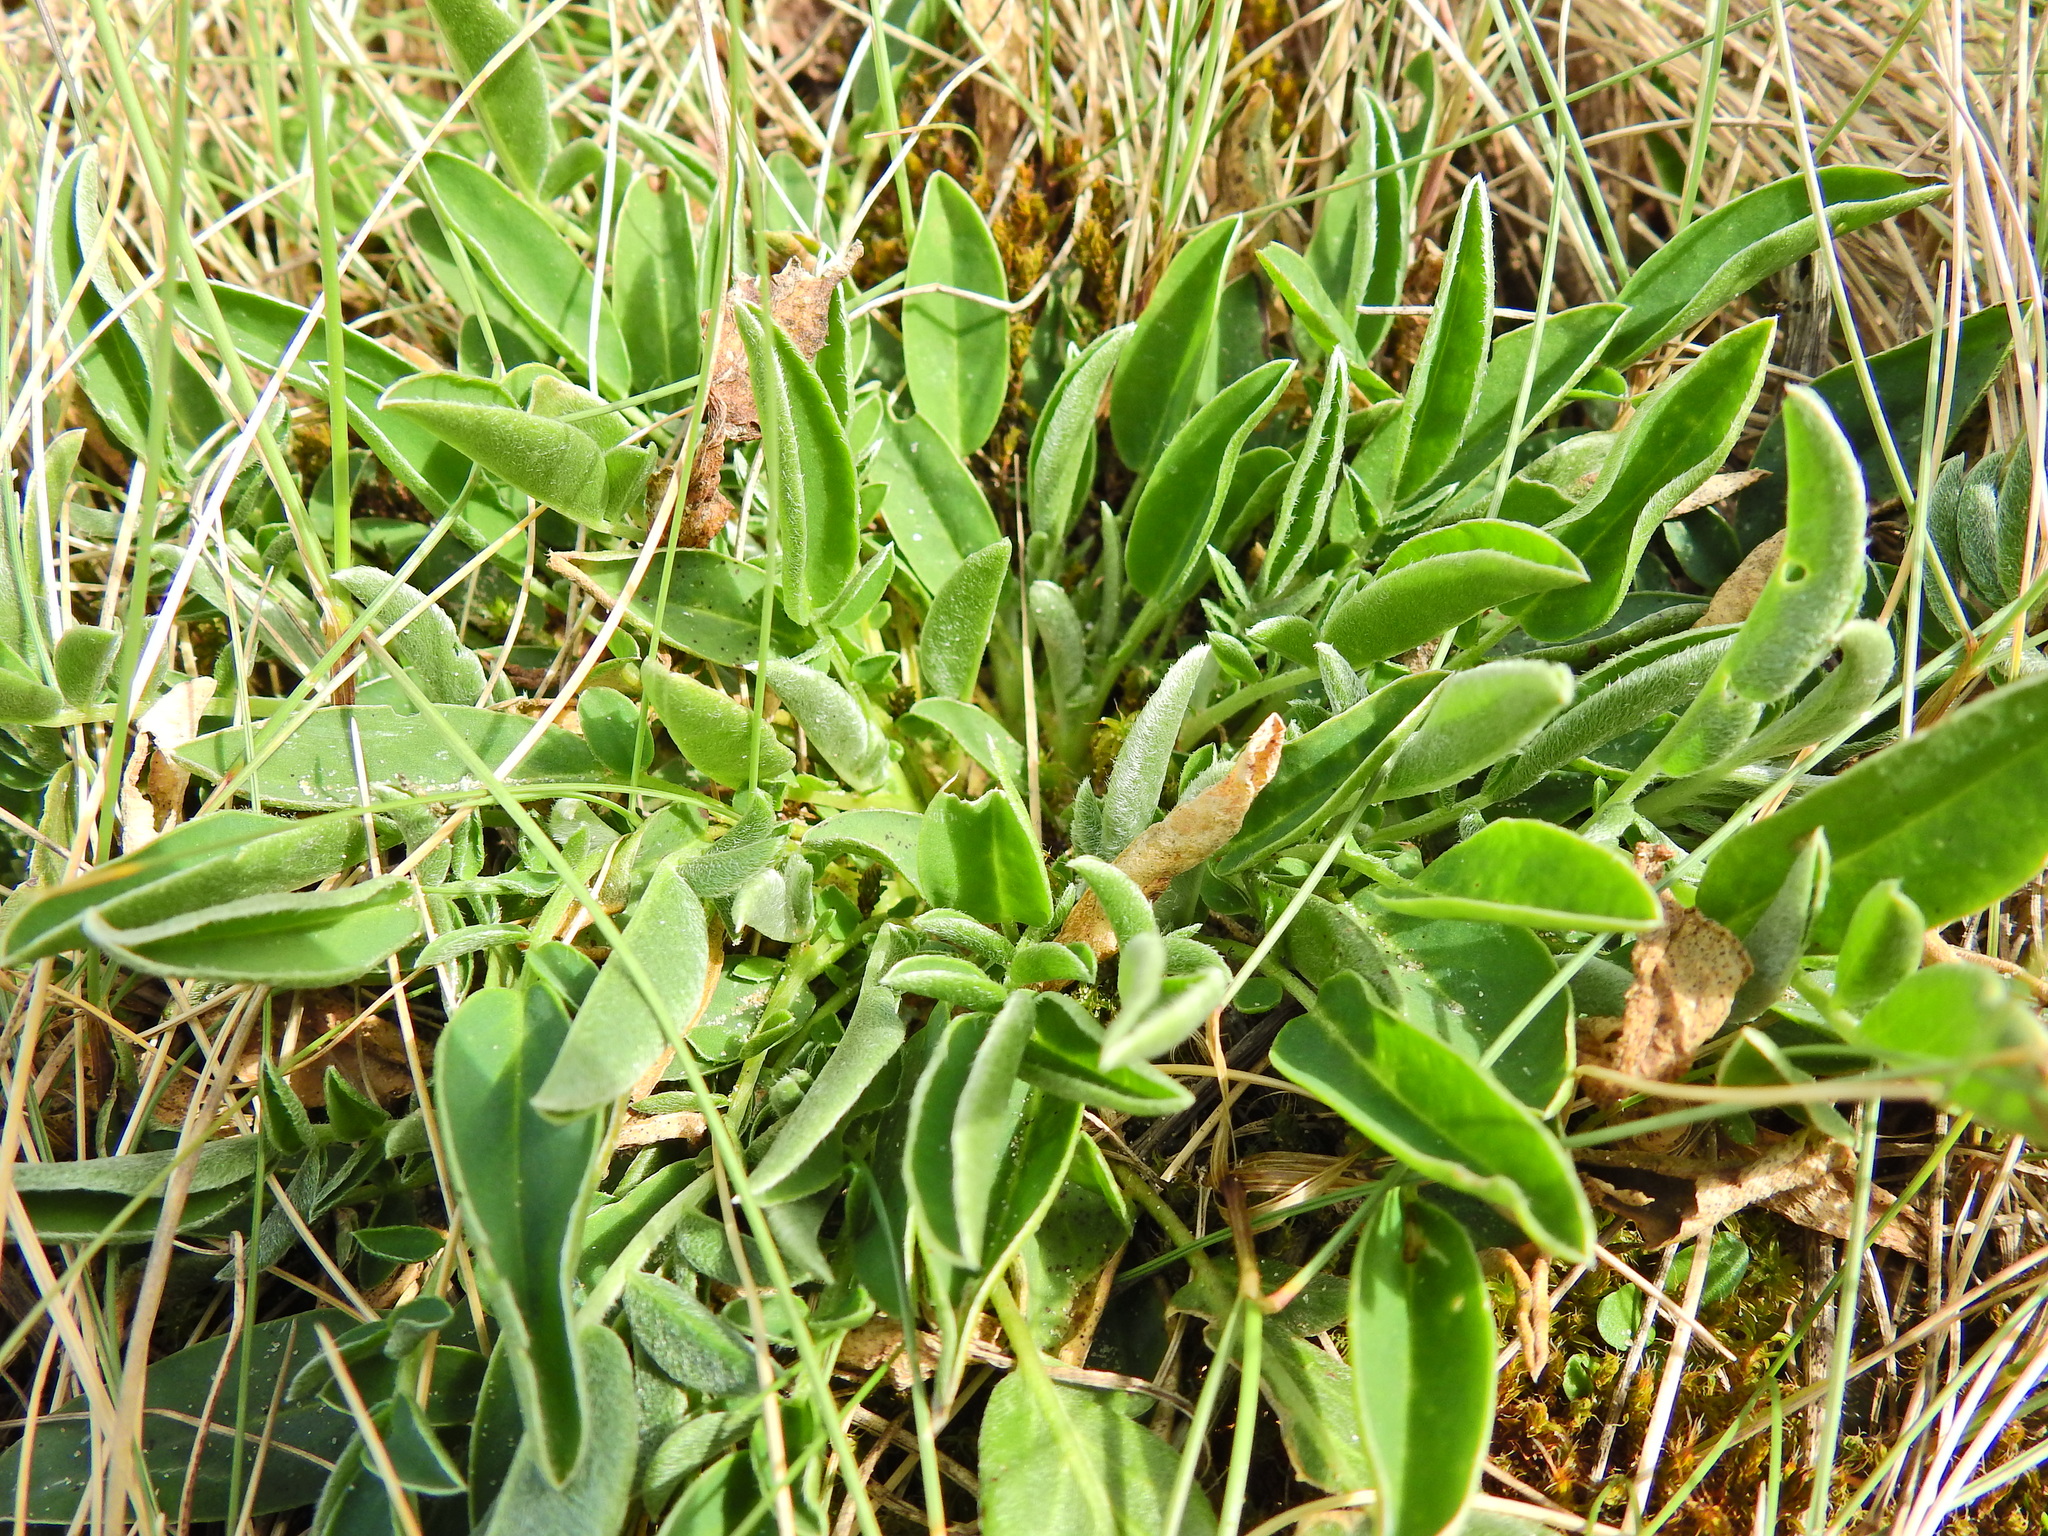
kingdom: Plantae
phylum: Tracheophyta
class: Magnoliopsida
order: Fabales
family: Fabaceae
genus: Anthyllis
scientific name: Anthyllis vulneraria
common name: Kidney vetch
